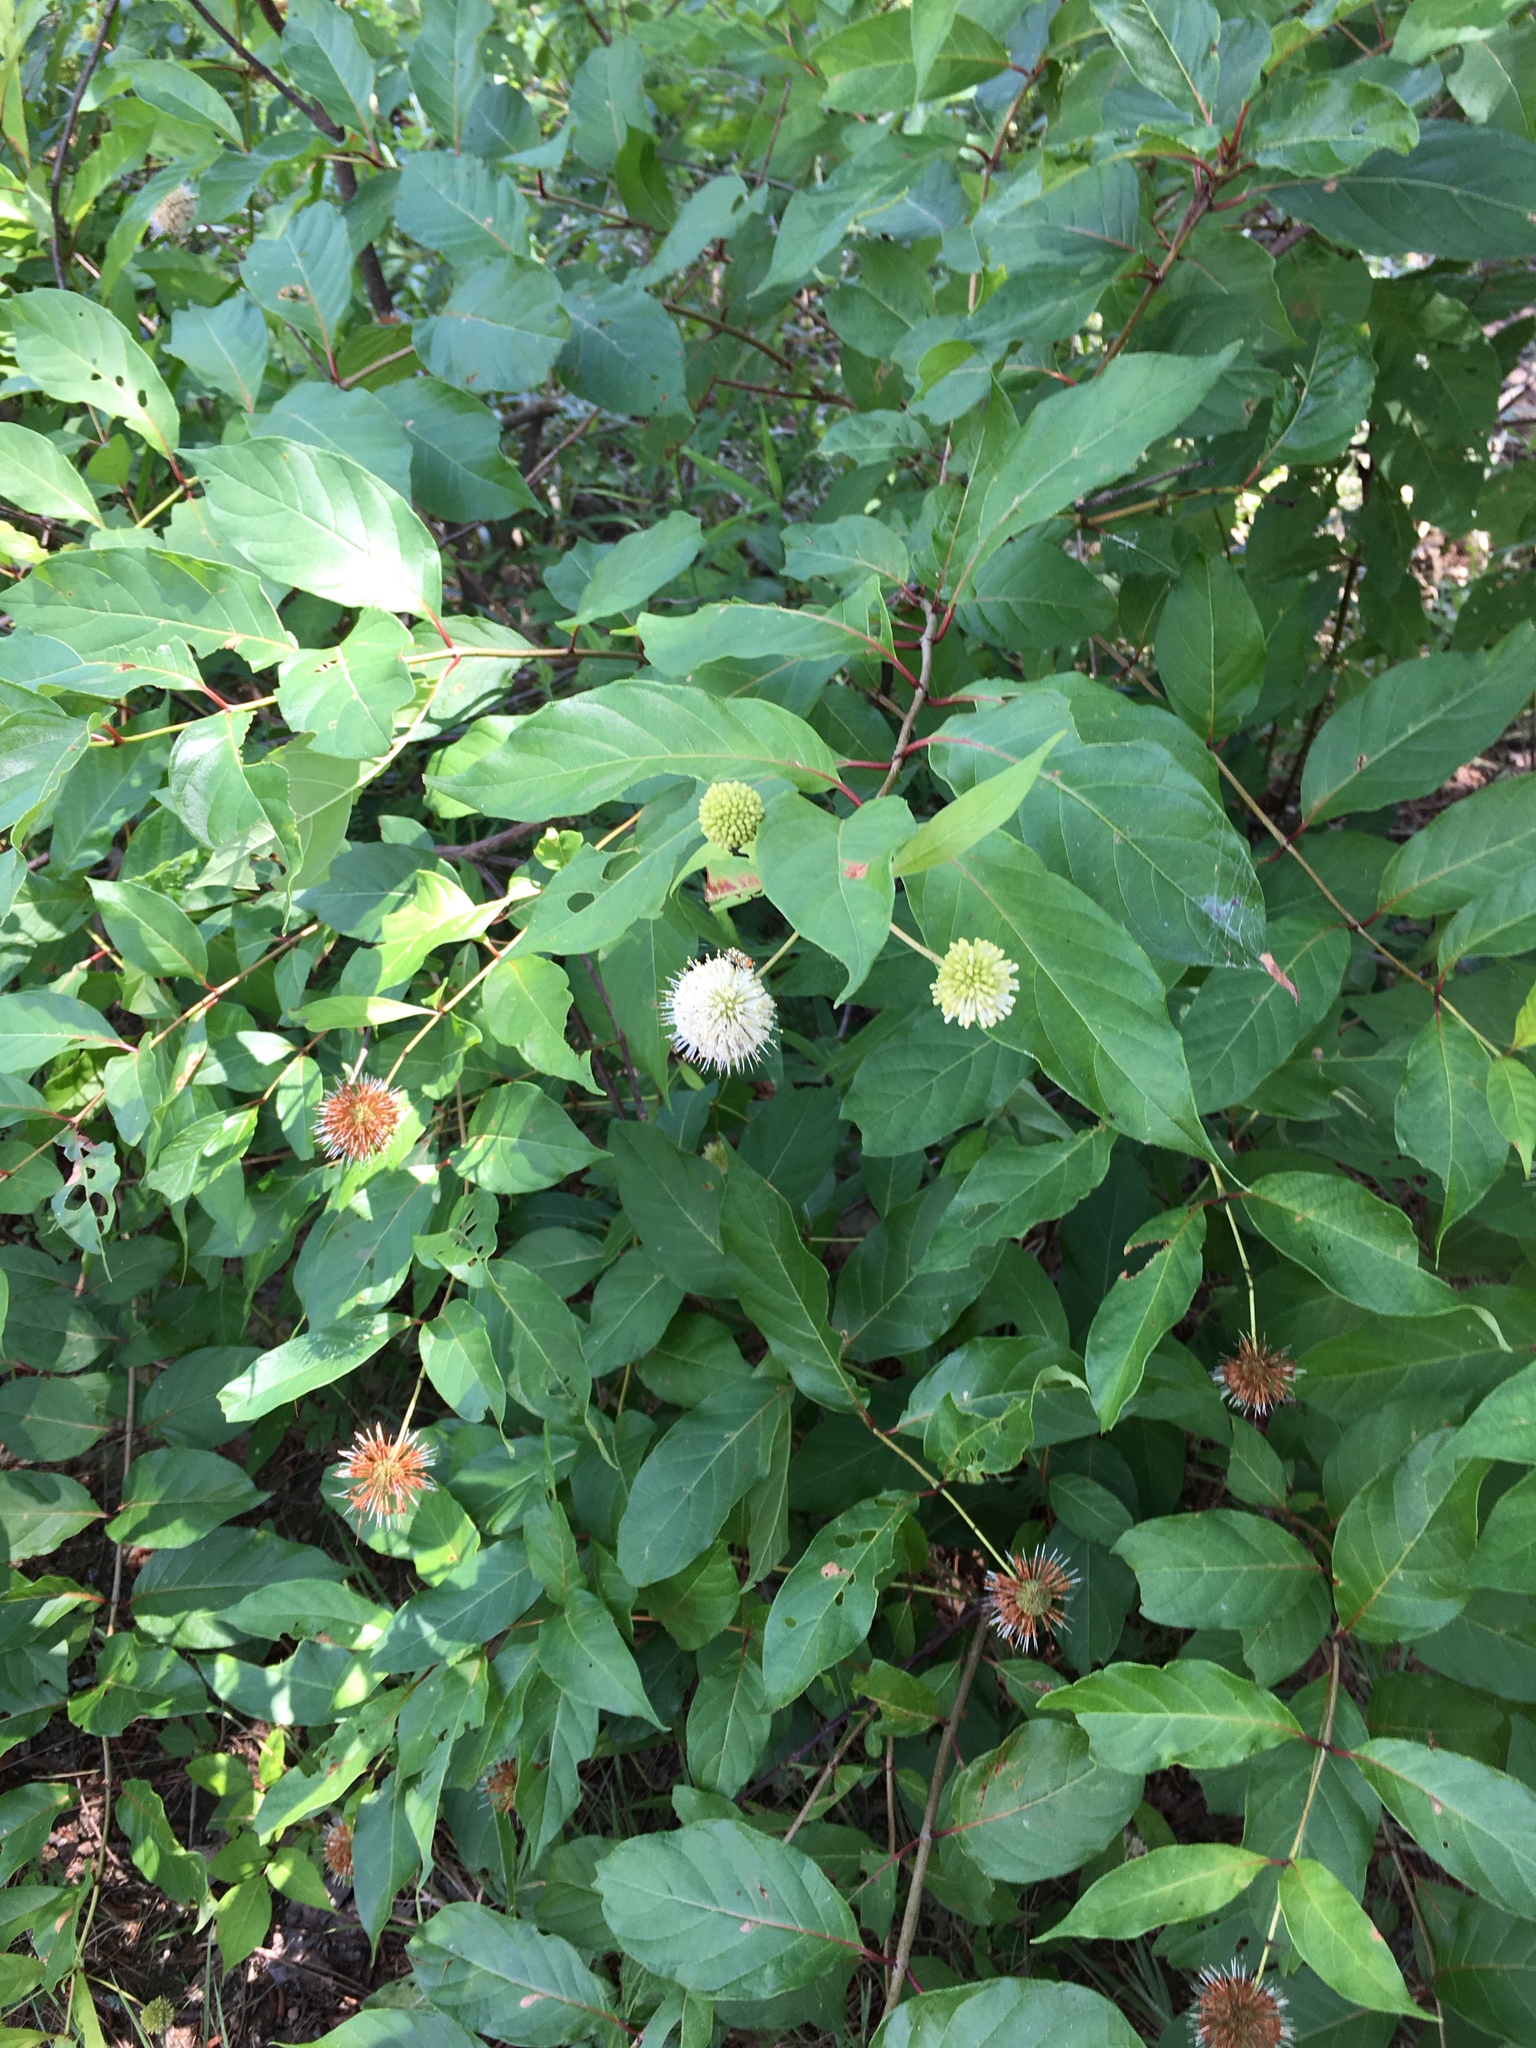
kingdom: Plantae
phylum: Tracheophyta
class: Magnoliopsida
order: Gentianales
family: Rubiaceae
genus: Cephalanthus
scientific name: Cephalanthus occidentalis
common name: Button-willow
